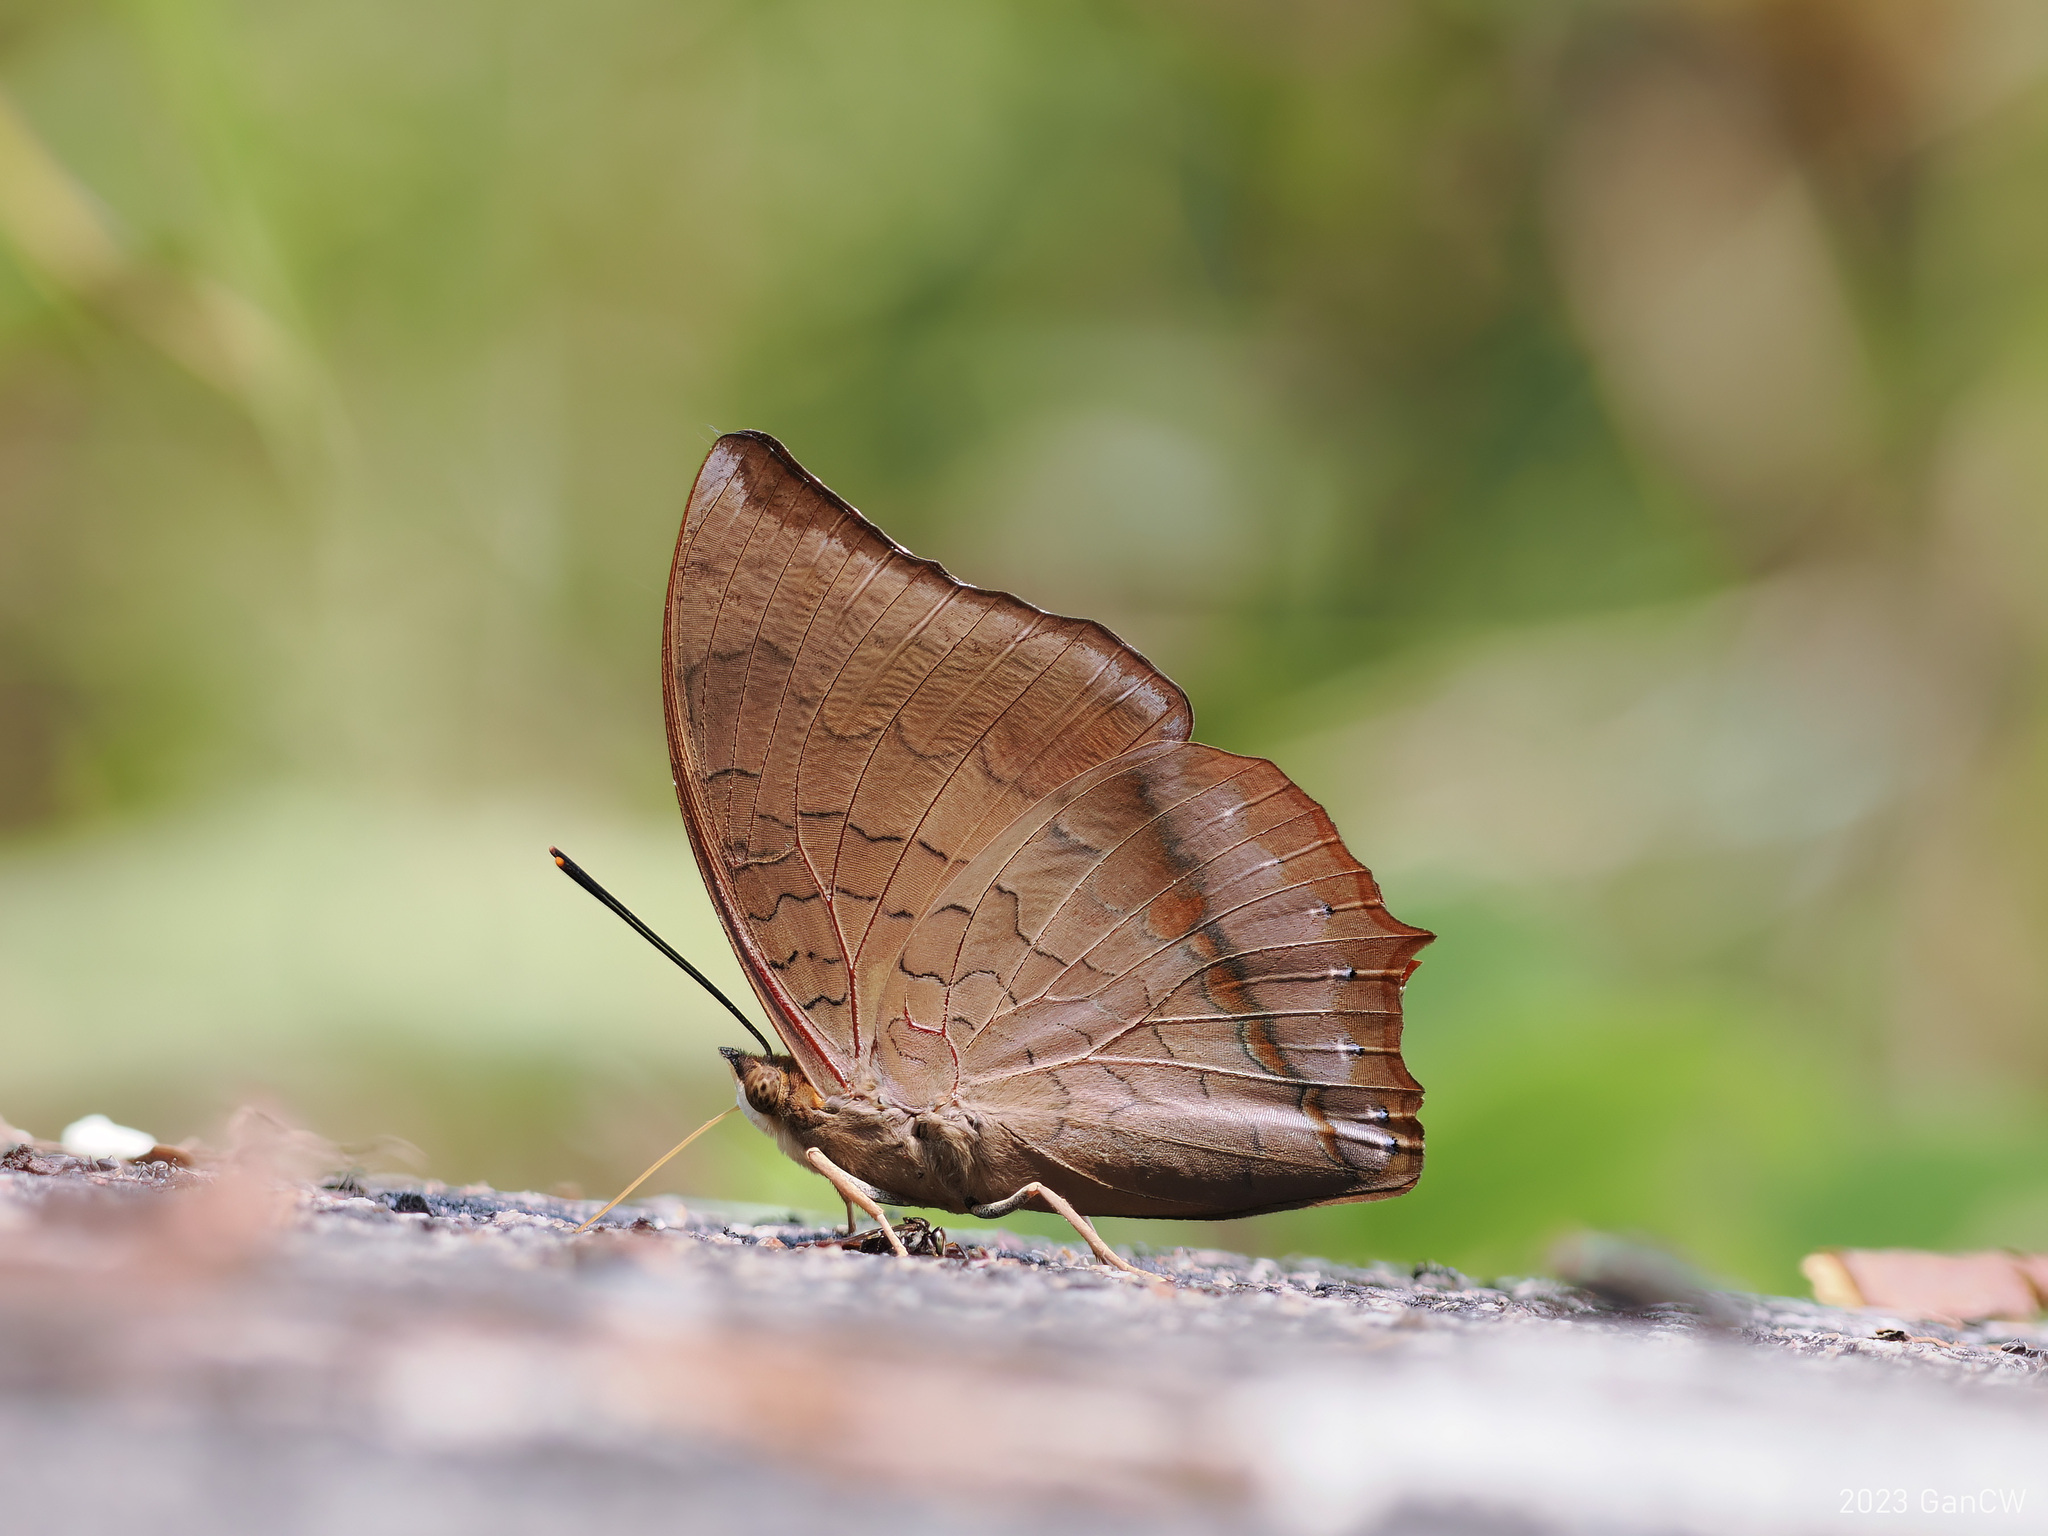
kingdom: Animalia
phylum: Arthropoda
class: Insecta
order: Lepidoptera
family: Nymphalidae
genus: Charaxes
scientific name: Charaxes bernardus
